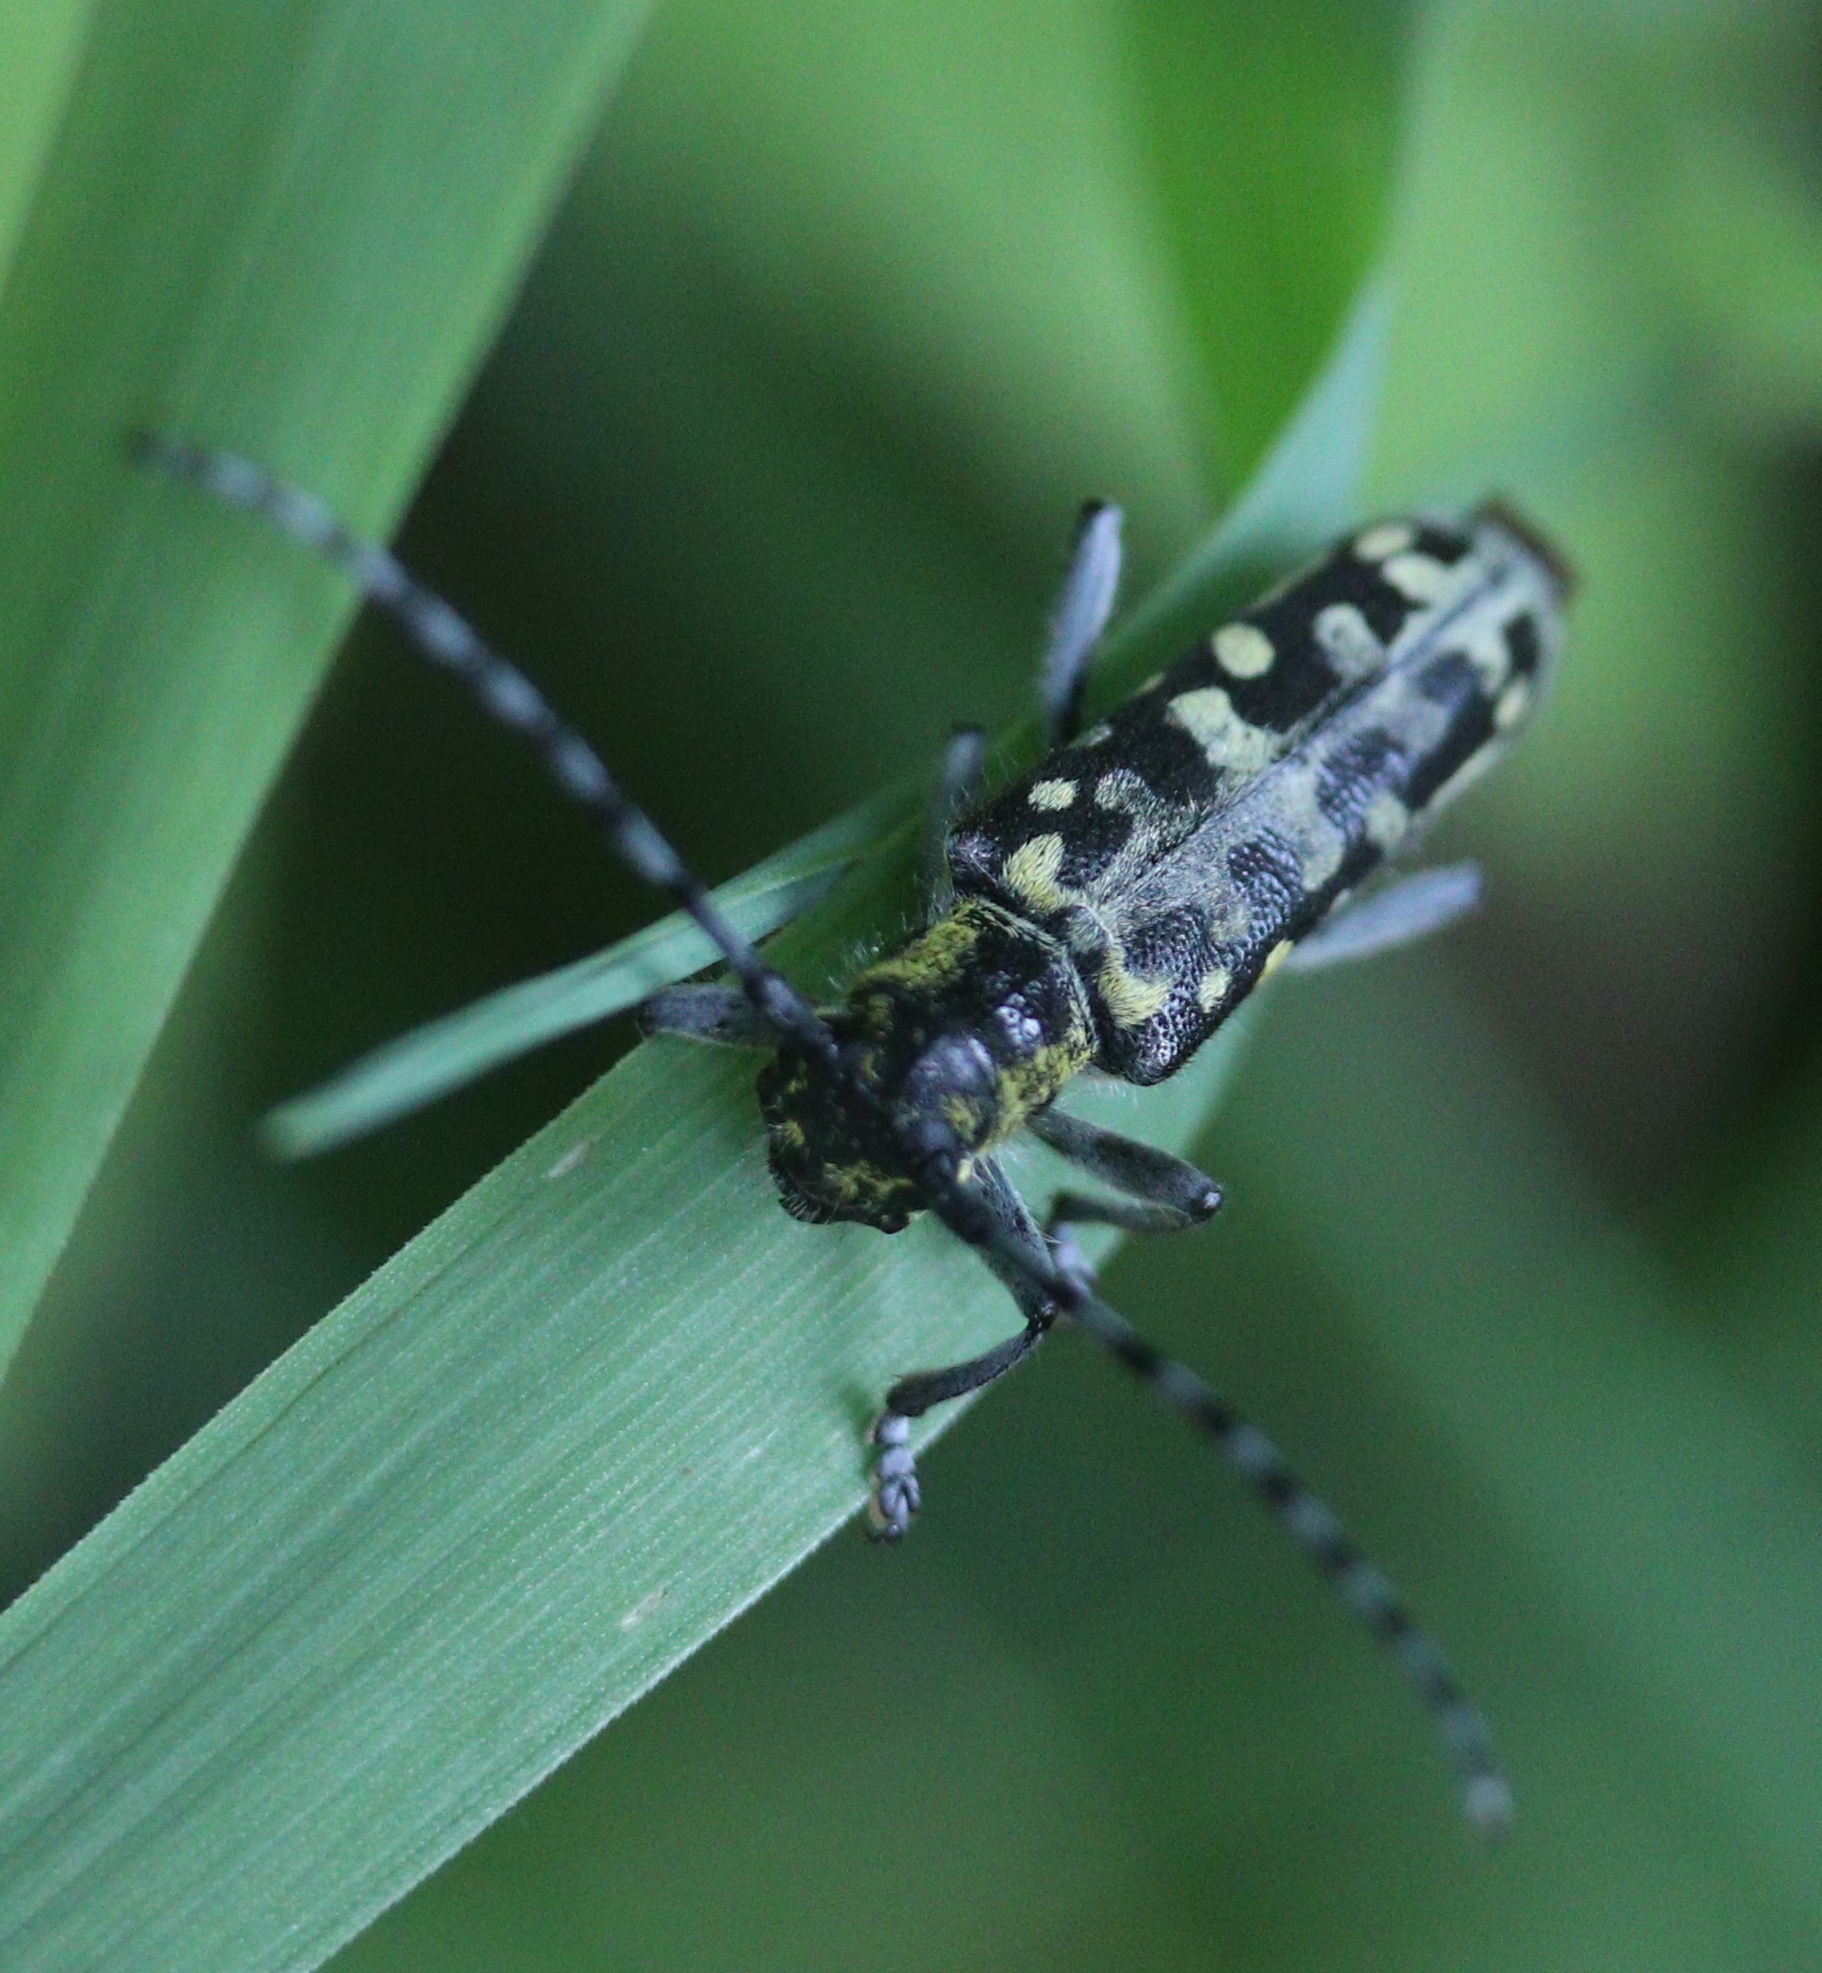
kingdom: Animalia
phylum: Arthropoda
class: Insecta
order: Coleoptera
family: Cerambycidae
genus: Saperda
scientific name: Saperda scalaris
